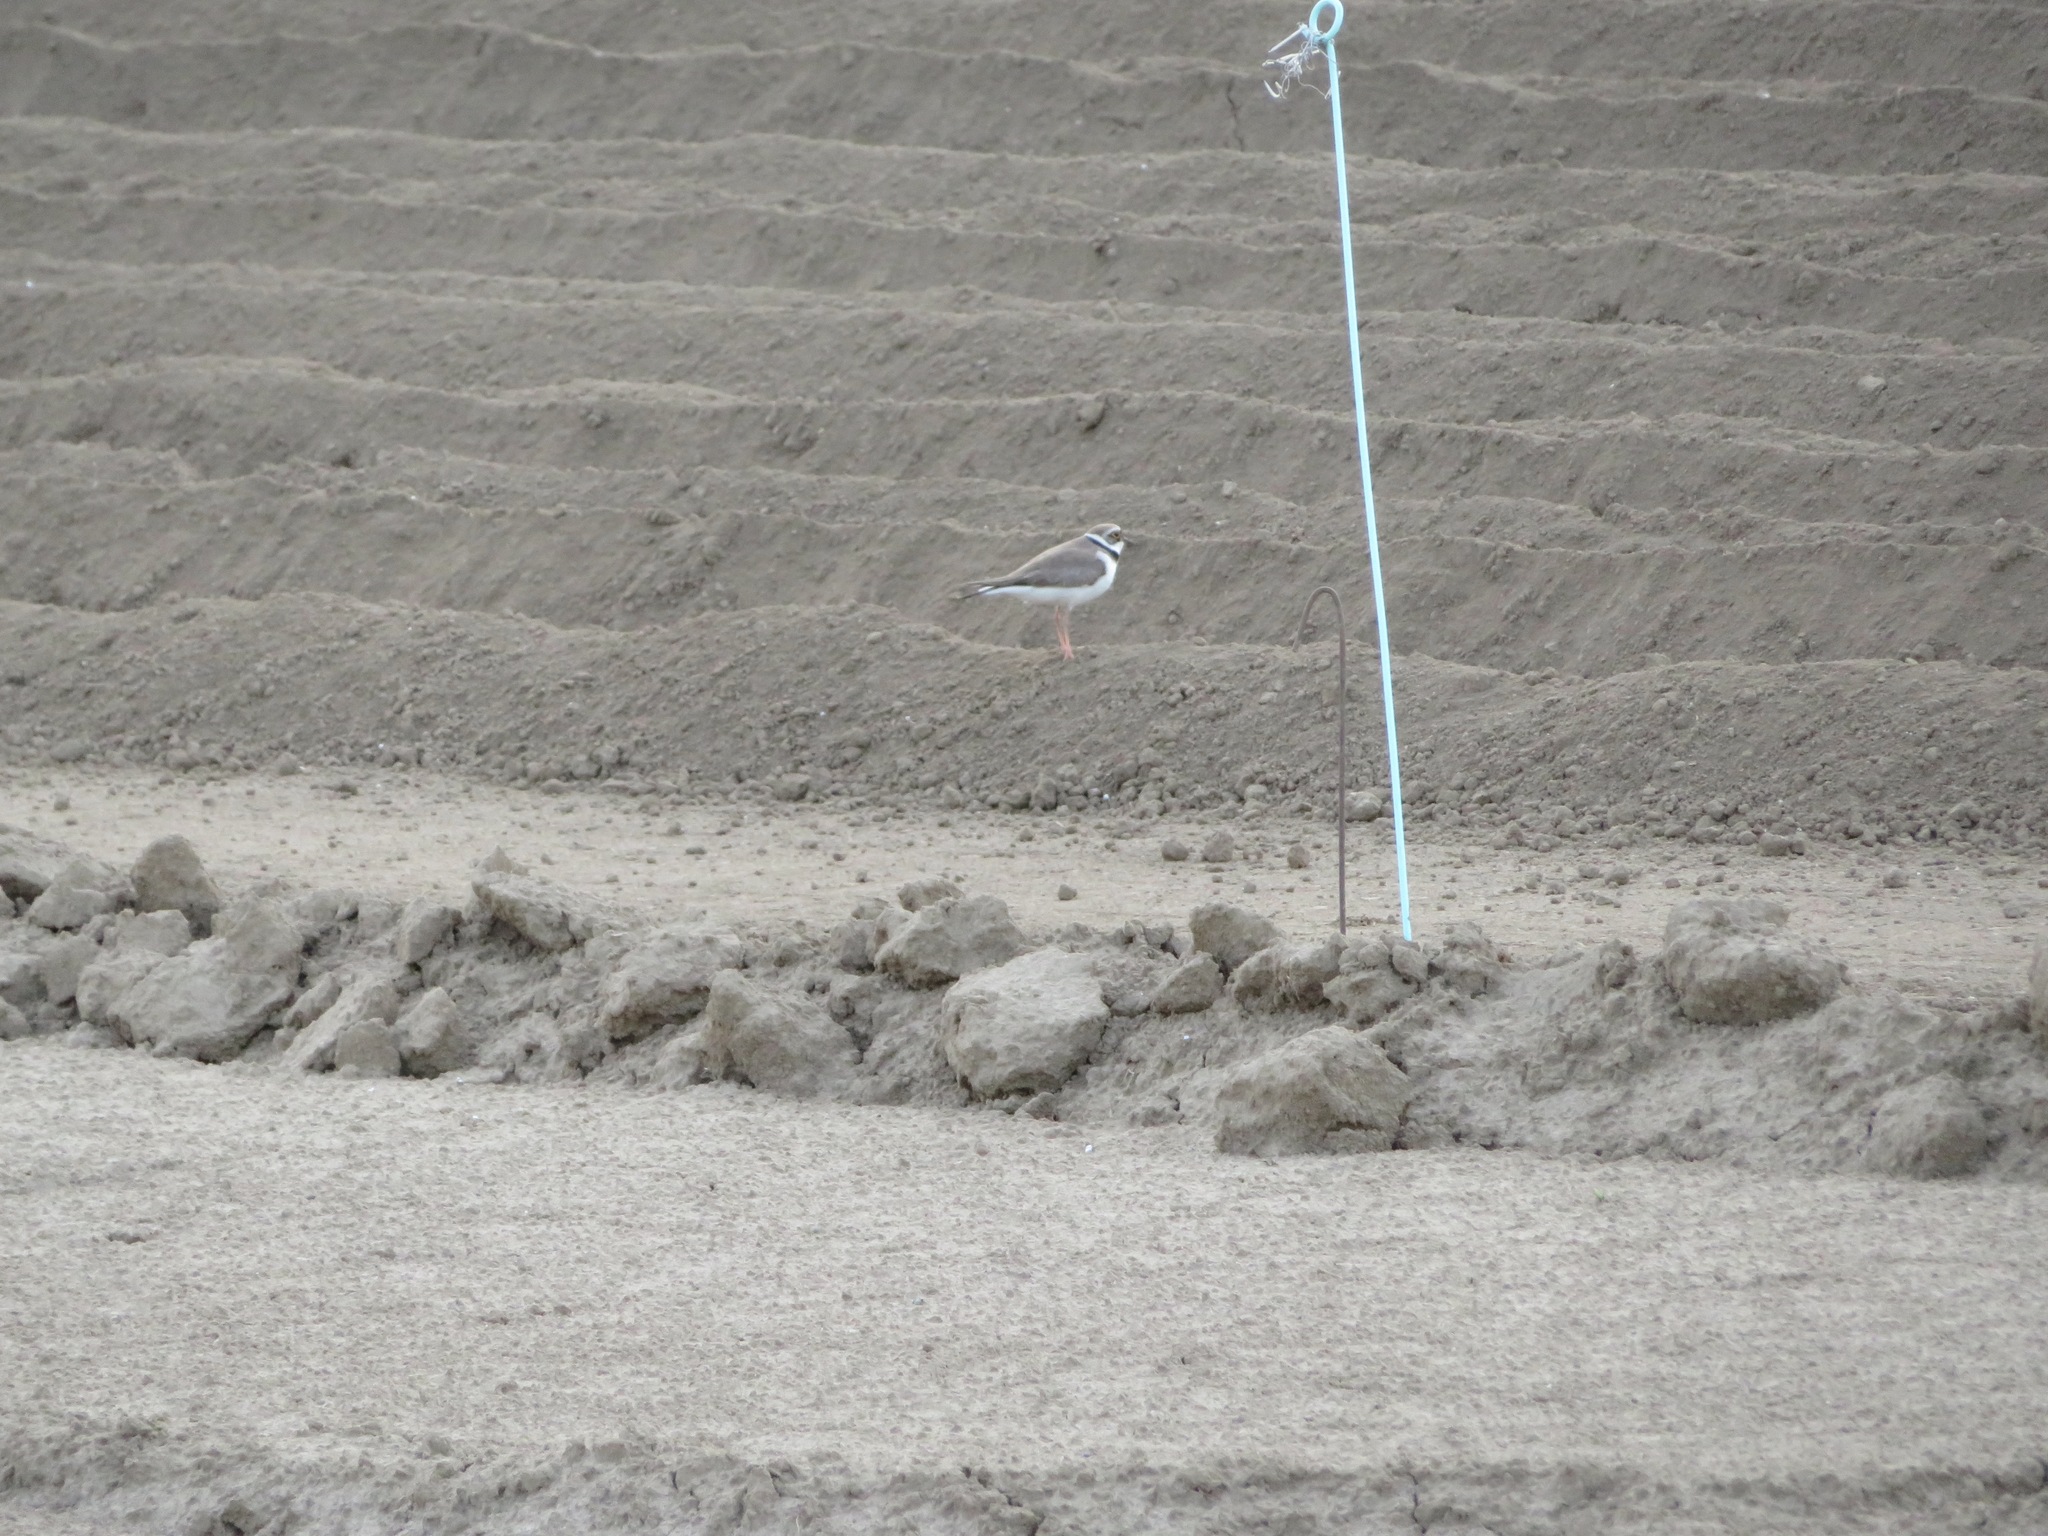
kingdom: Animalia
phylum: Chordata
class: Aves
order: Charadriiformes
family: Charadriidae
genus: Charadrius
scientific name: Charadrius dubius
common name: Little ringed plover
